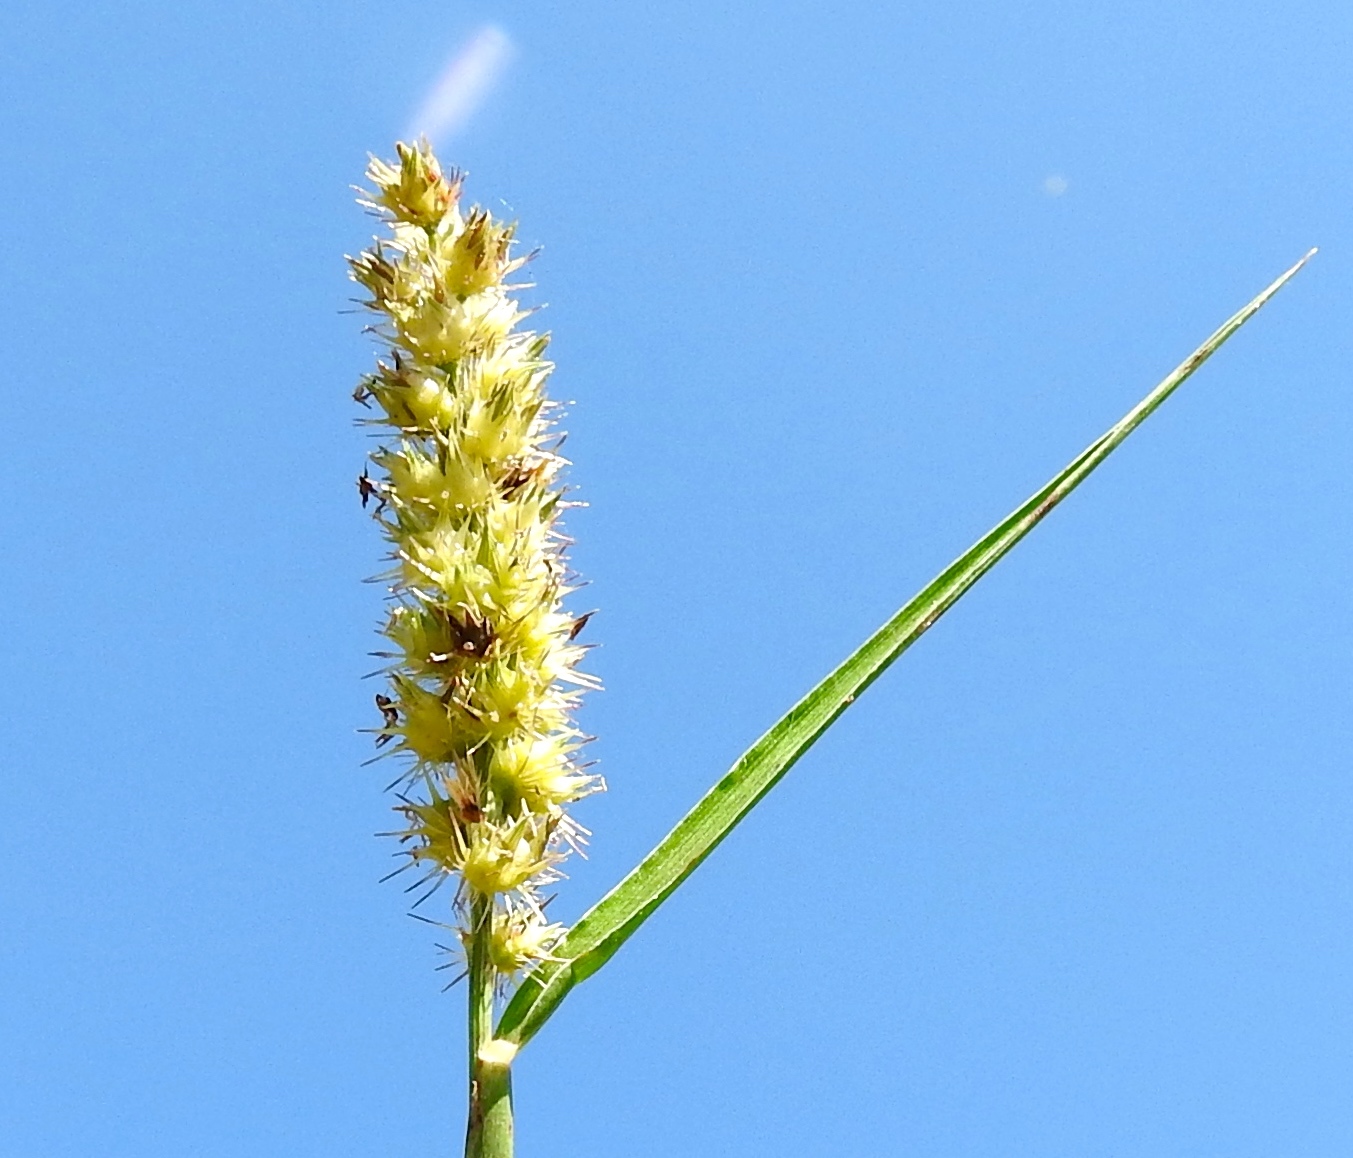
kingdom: Plantae
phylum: Tracheophyta
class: Liliopsida
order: Poales
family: Poaceae
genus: Cenchrus
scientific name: Cenchrus echinatus
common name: Southern sandbur
